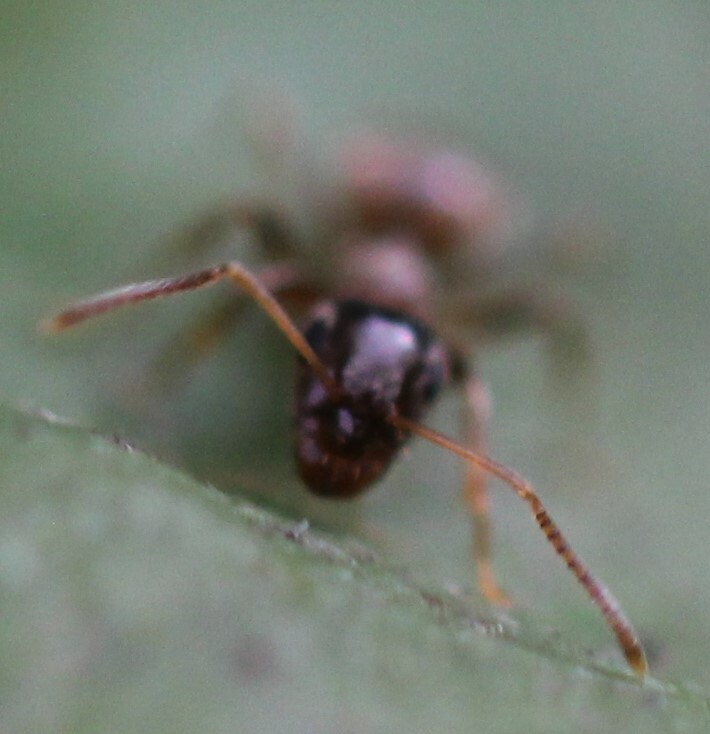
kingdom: Animalia
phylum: Arthropoda
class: Insecta
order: Hymenoptera
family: Formicidae
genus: Lasius
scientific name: Lasius neglectus
